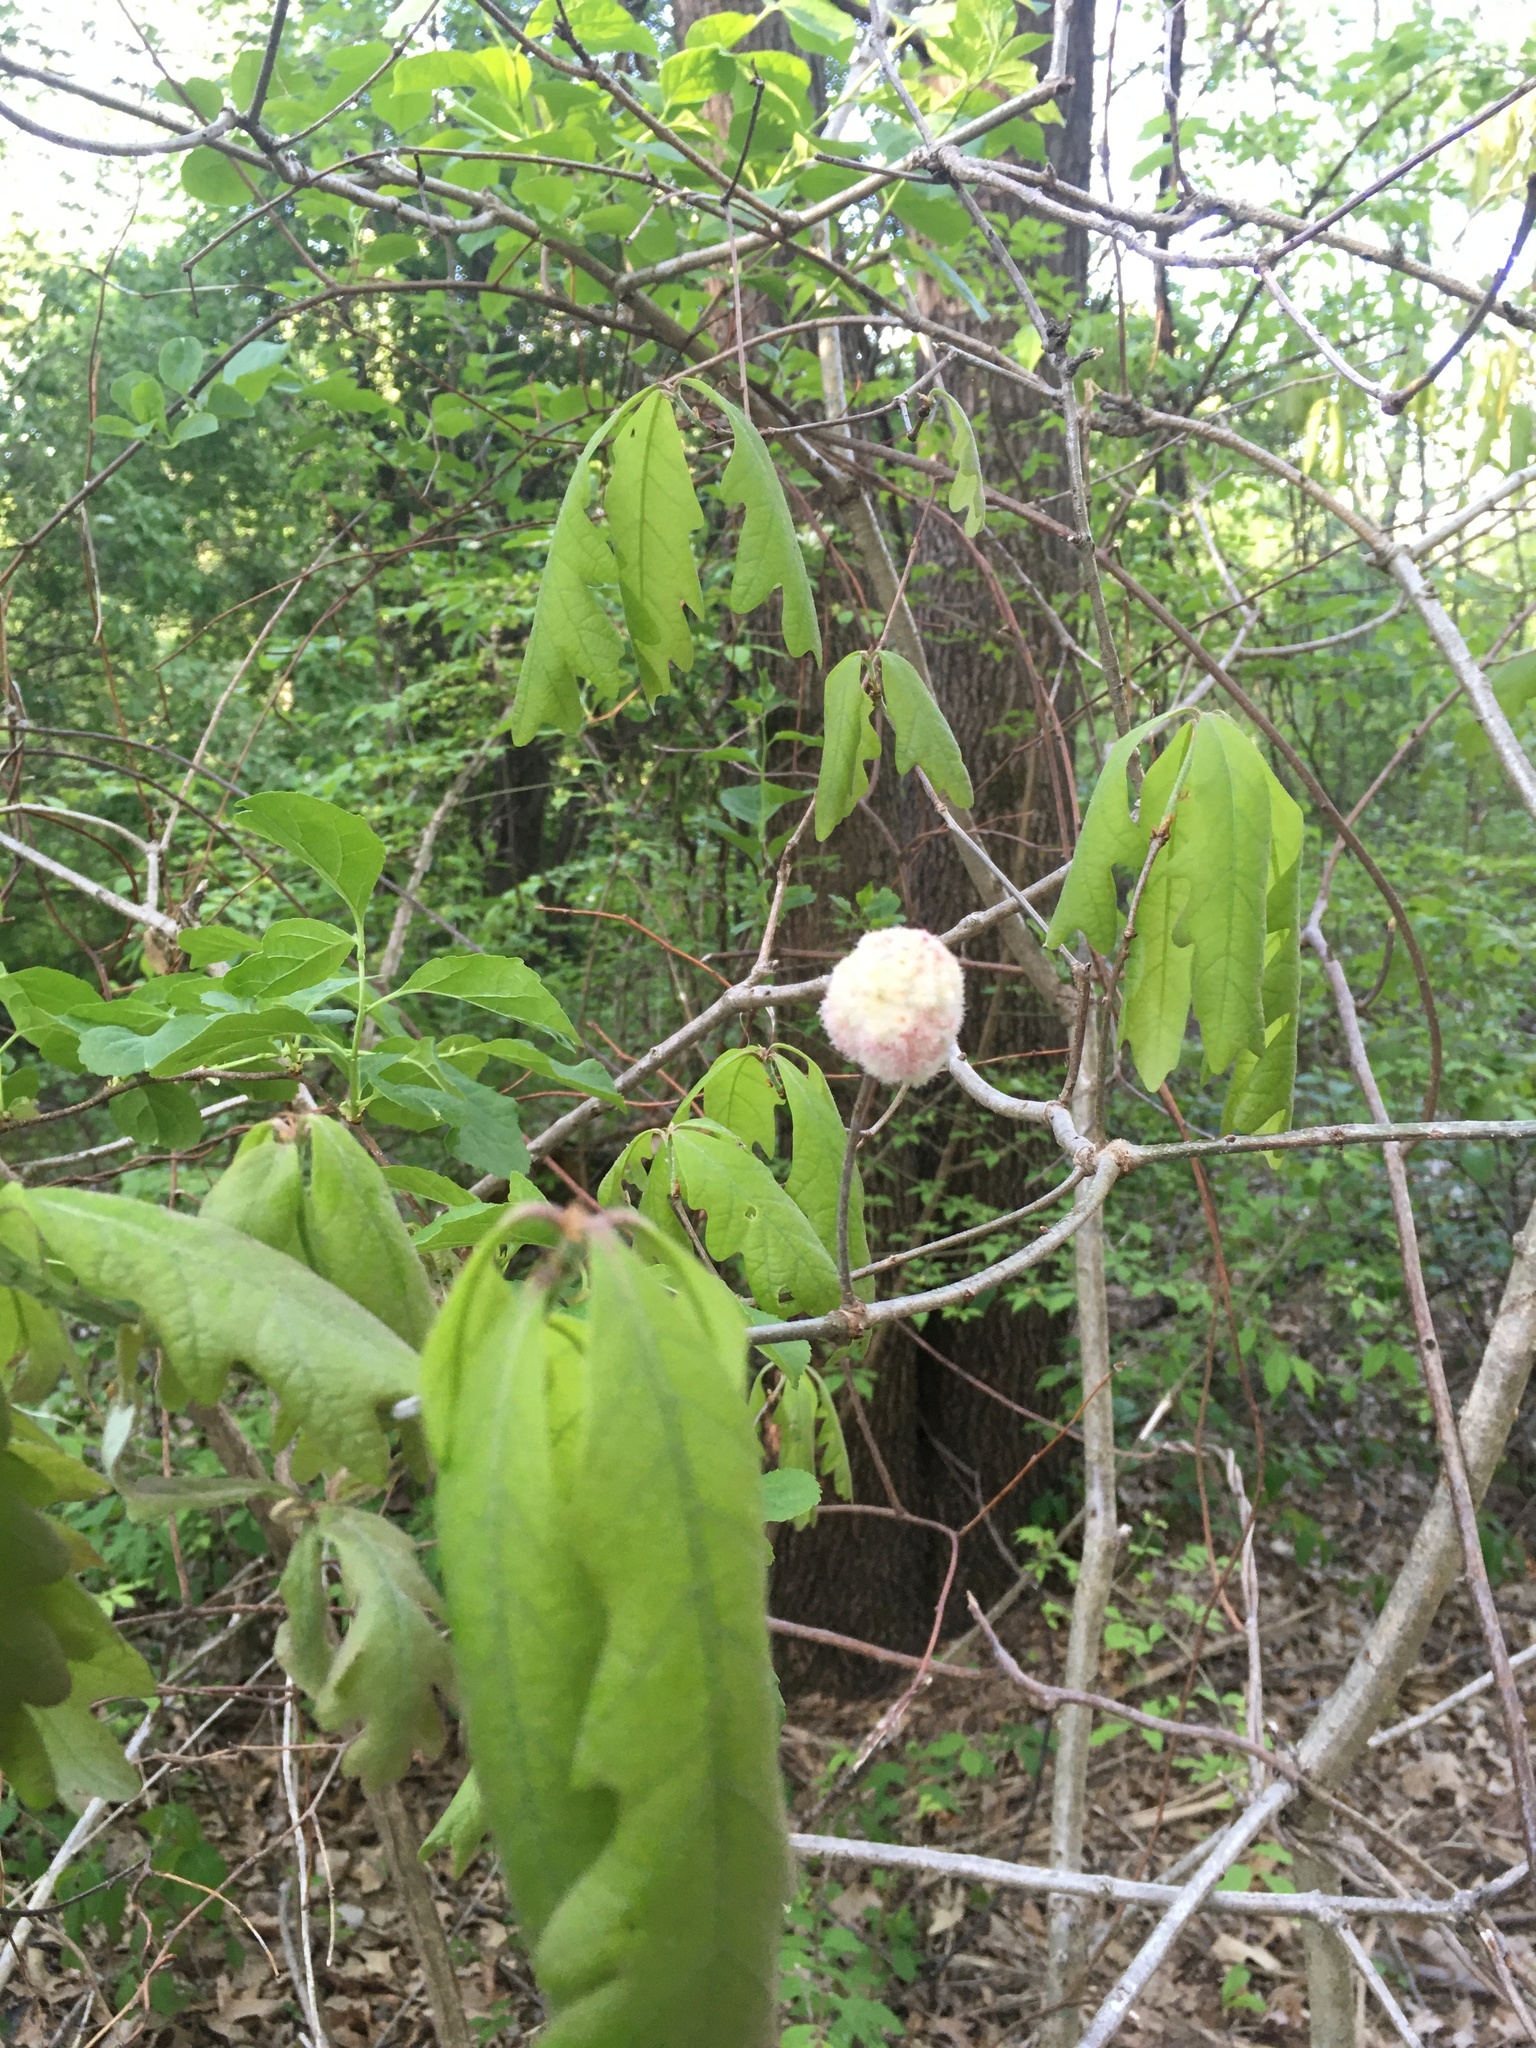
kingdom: Animalia
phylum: Arthropoda
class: Insecta
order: Hymenoptera
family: Cynipidae
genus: Callirhytis
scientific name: Callirhytis
